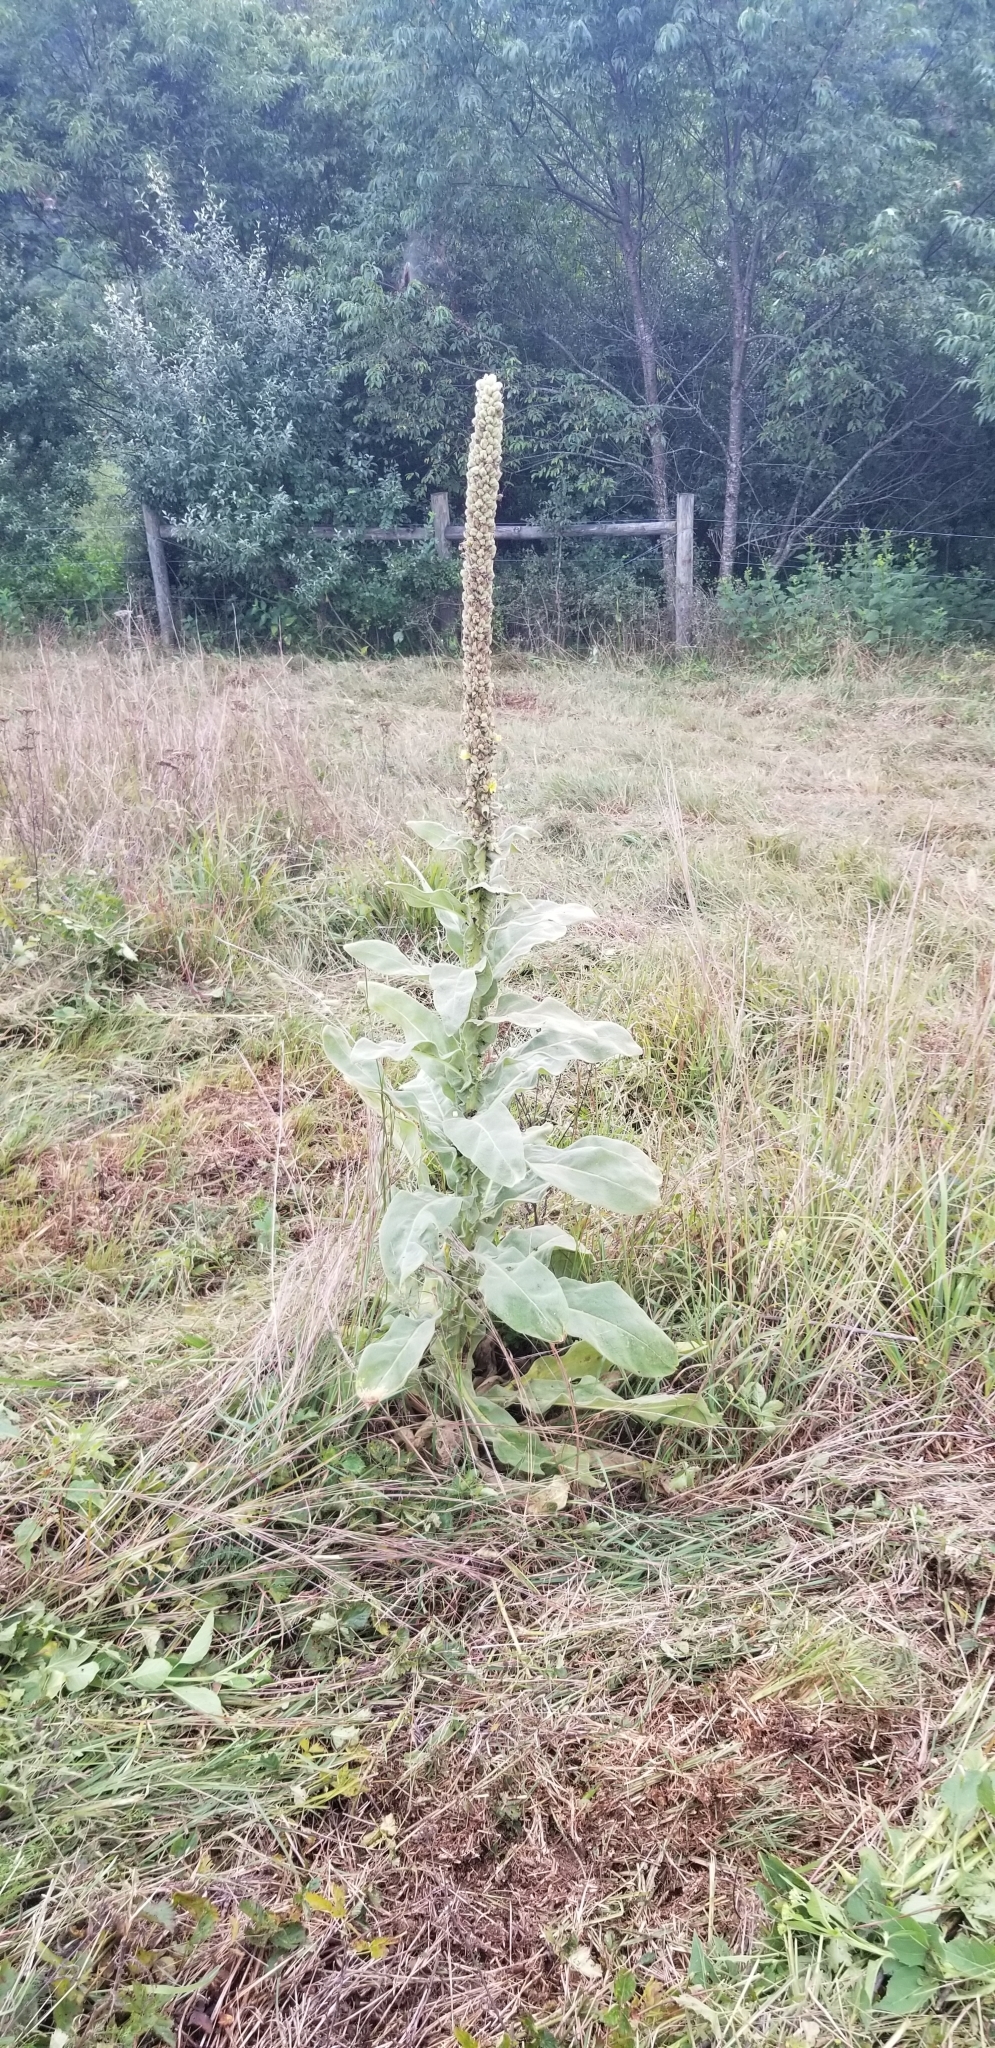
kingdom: Plantae
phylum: Tracheophyta
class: Magnoliopsida
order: Lamiales
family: Scrophulariaceae
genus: Verbascum
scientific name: Verbascum thapsus
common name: Common mullein
